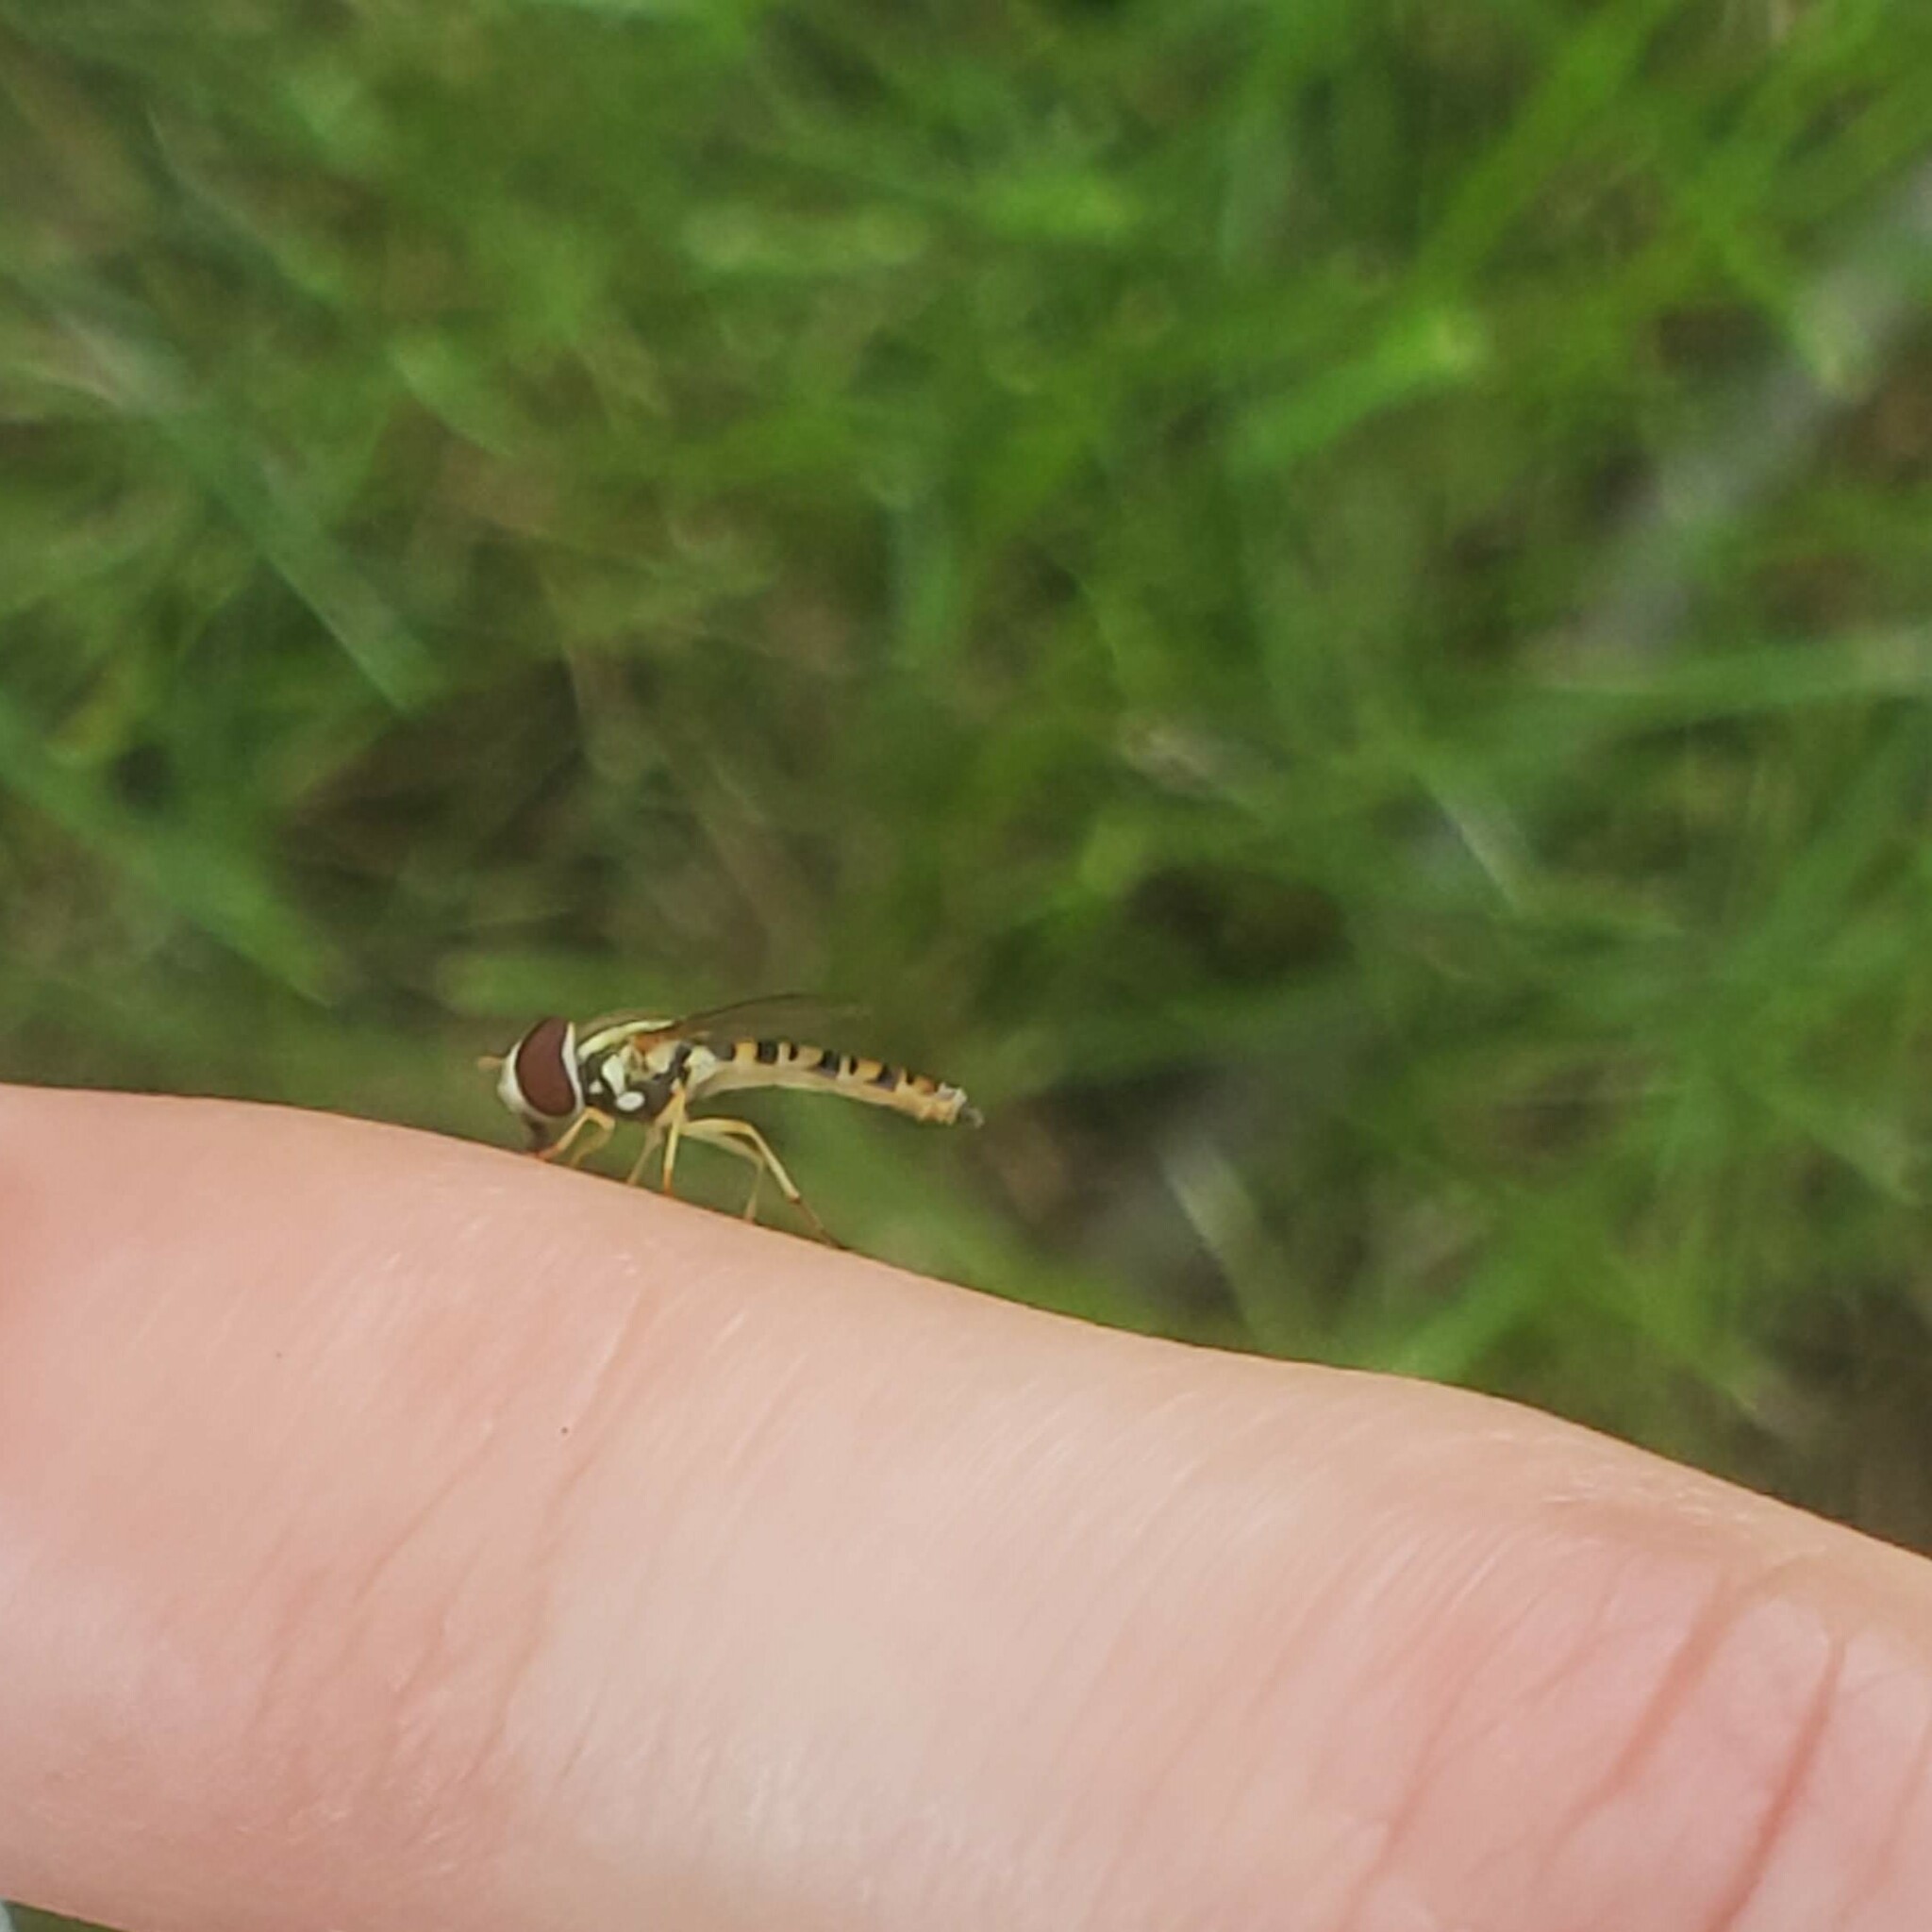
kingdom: Animalia
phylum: Arthropoda
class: Insecta
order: Diptera
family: Syrphidae
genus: Toxomerus
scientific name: Toxomerus politus
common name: Maize calligrapher
